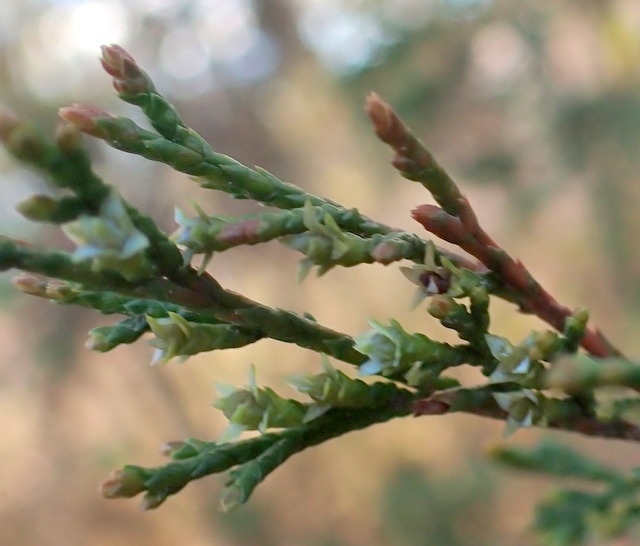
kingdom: Plantae
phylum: Tracheophyta
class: Pinopsida
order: Pinales
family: Cupressaceae
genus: Chamaecyparis
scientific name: Chamaecyparis thyoides
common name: Atlantic white cedar
